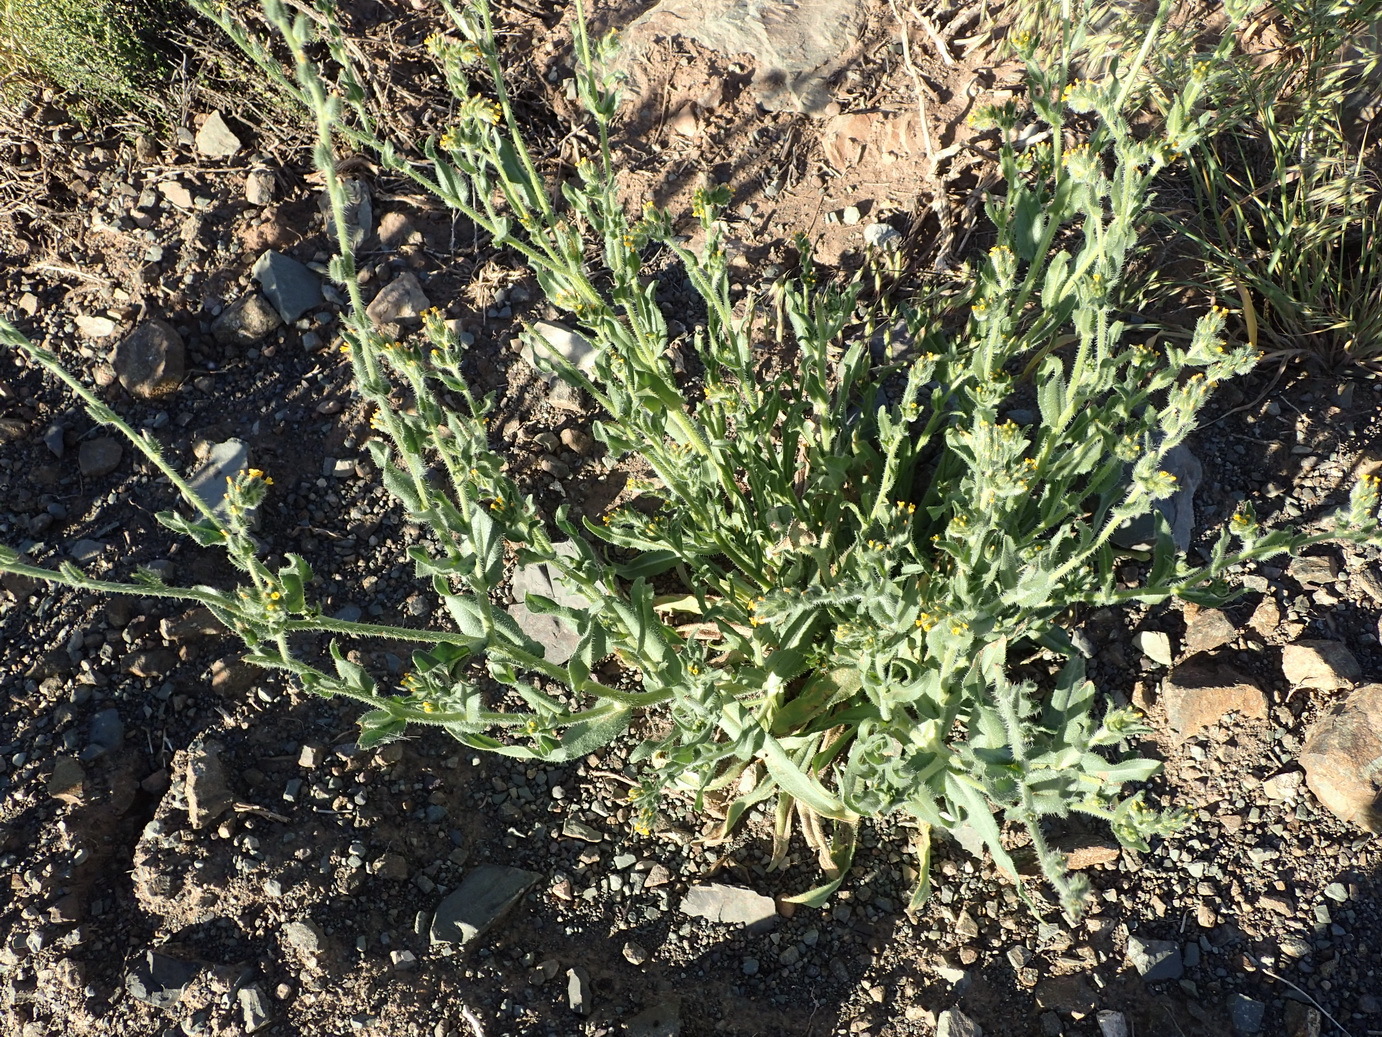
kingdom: Plantae
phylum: Tracheophyta
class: Magnoliopsida
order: Boraginales
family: Boraginaceae
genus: Amsinckia
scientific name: Amsinckia menziesii
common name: Menzies' fiddleneck
